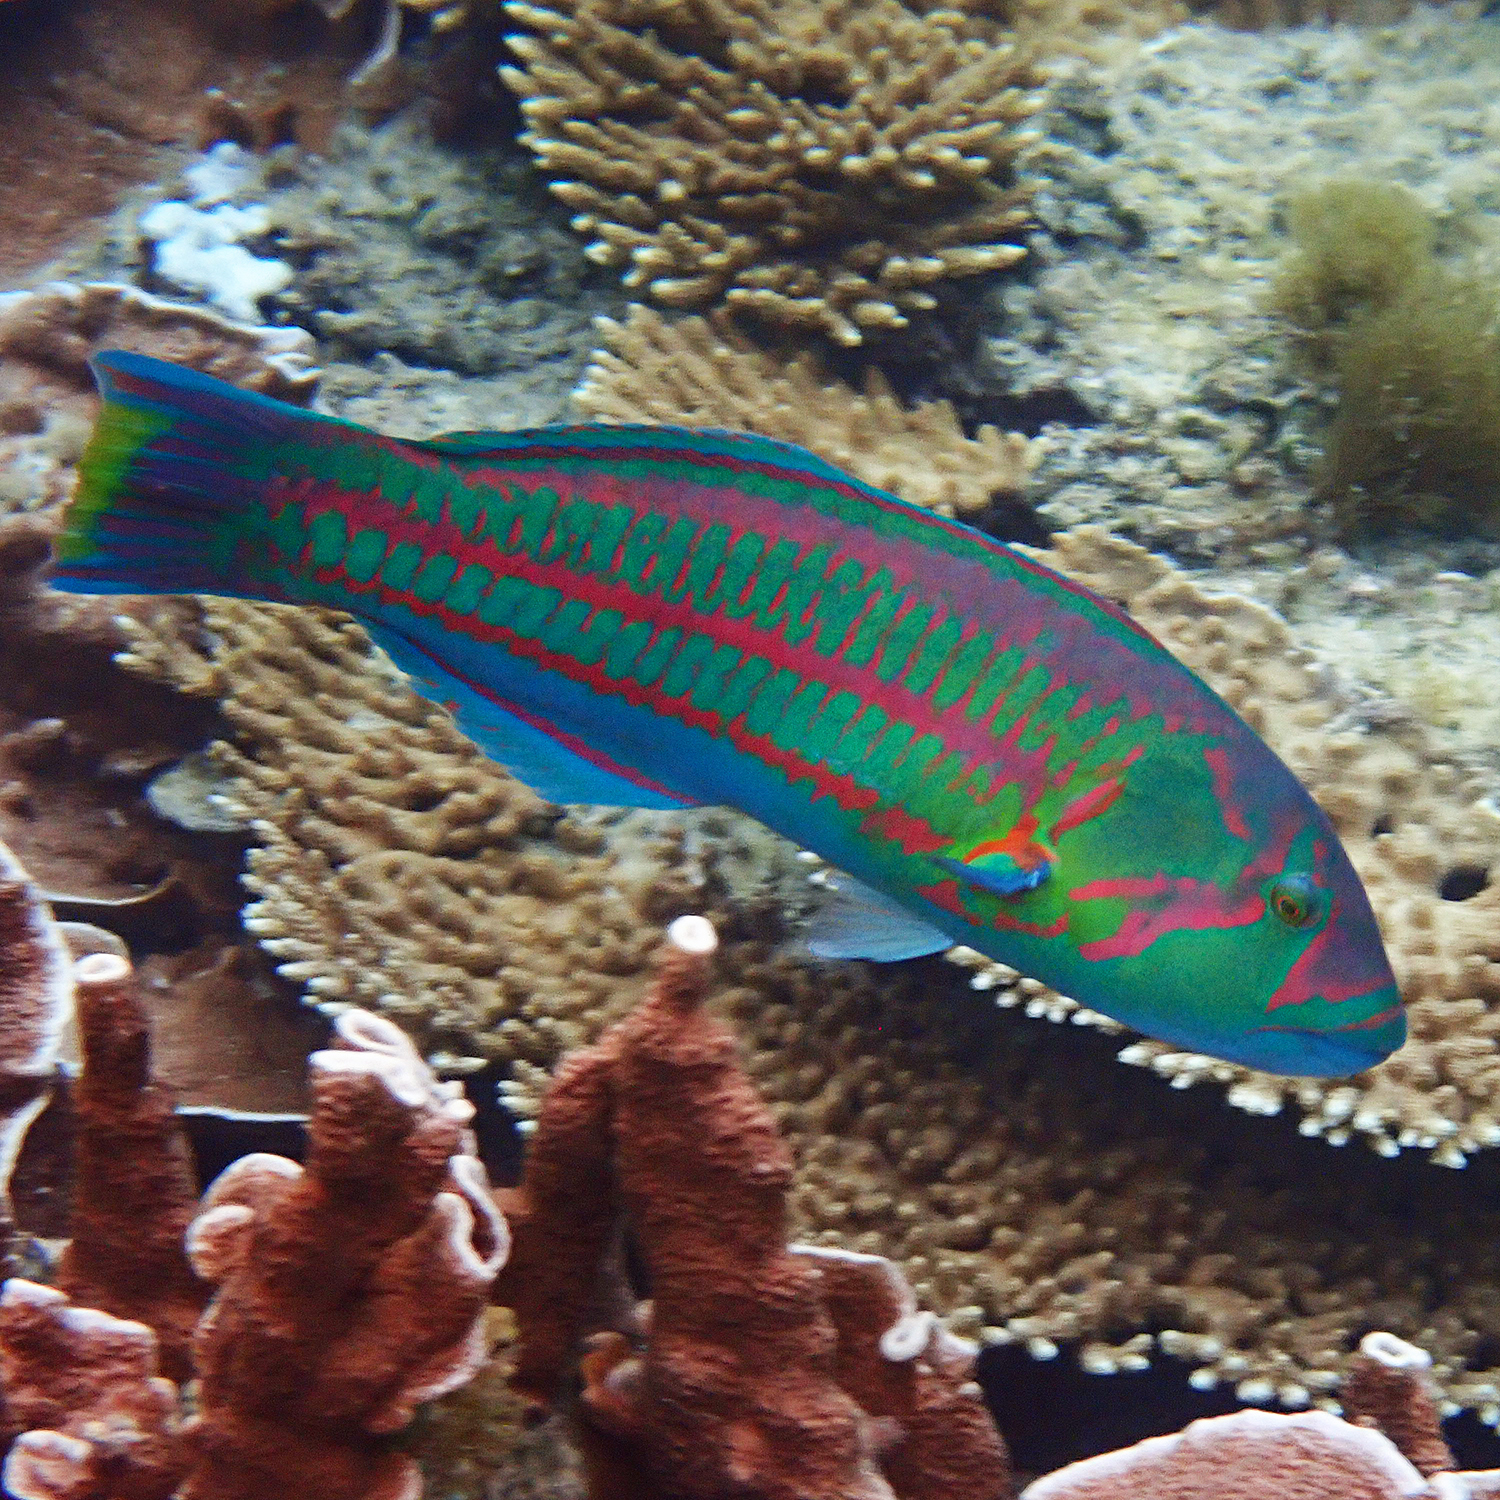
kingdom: Animalia
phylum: Chordata
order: Perciformes
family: Labridae
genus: Thalassoma
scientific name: Thalassoma purpureum
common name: Parrotfish
